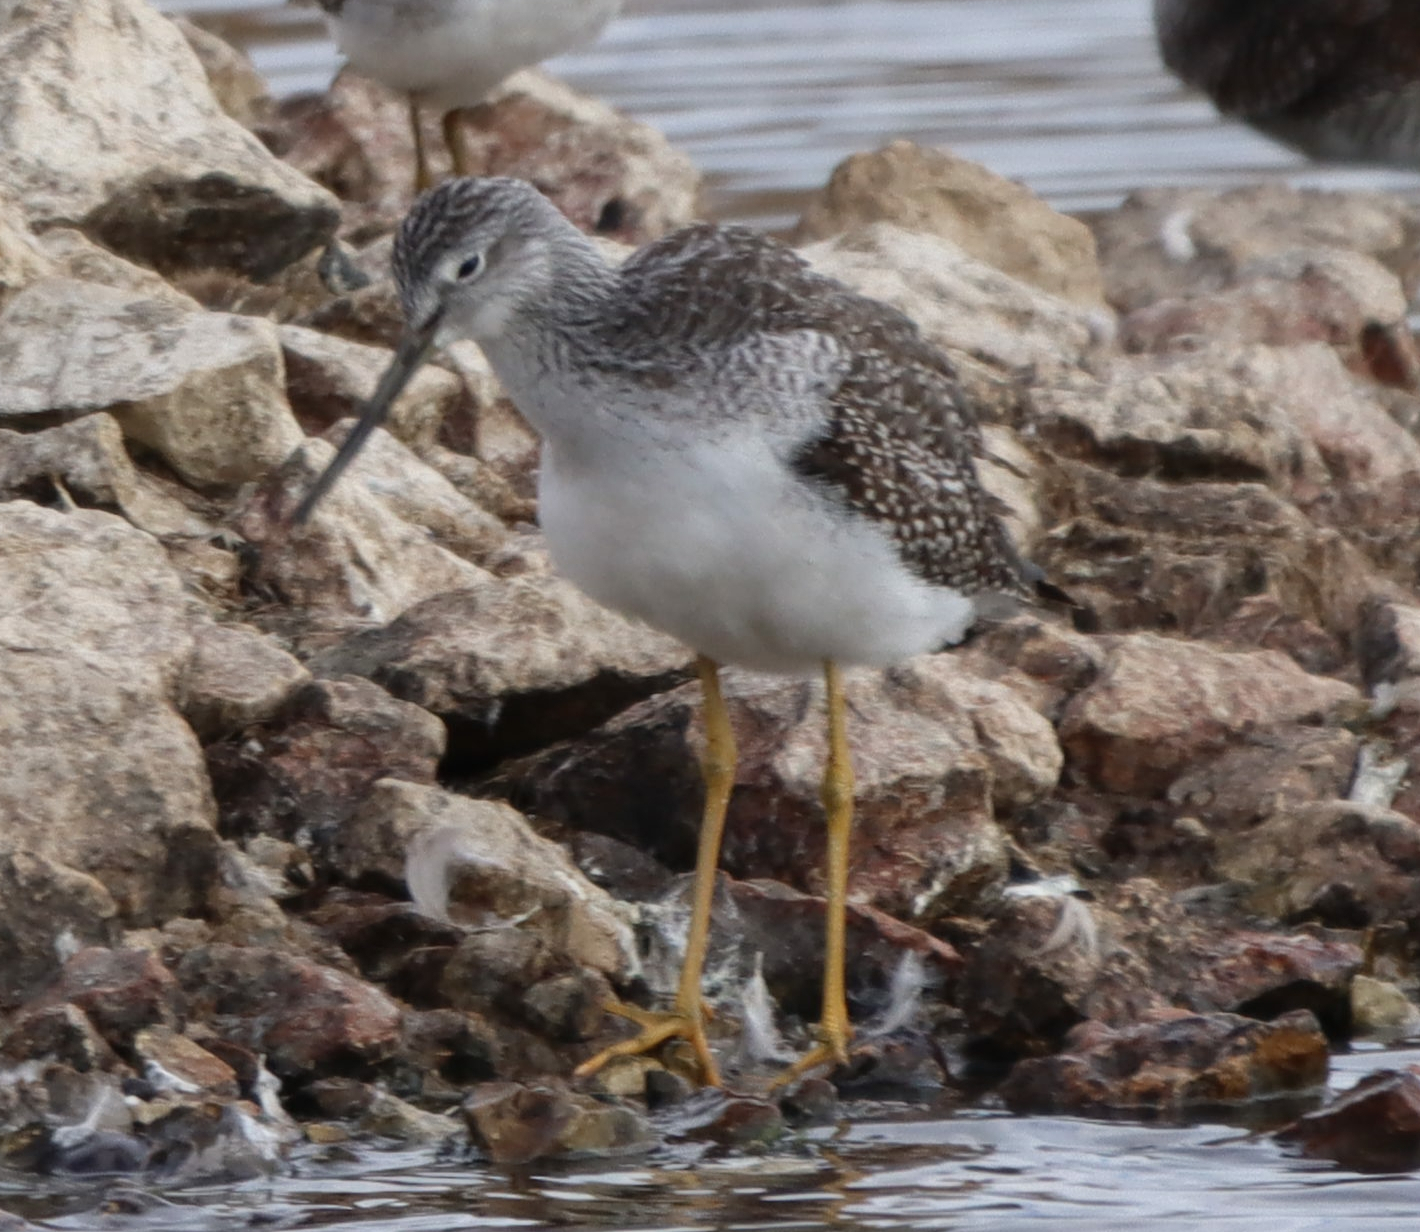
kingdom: Animalia
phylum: Chordata
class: Aves
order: Charadriiformes
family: Scolopacidae
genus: Tringa
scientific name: Tringa melanoleuca
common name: Greater yellowlegs
